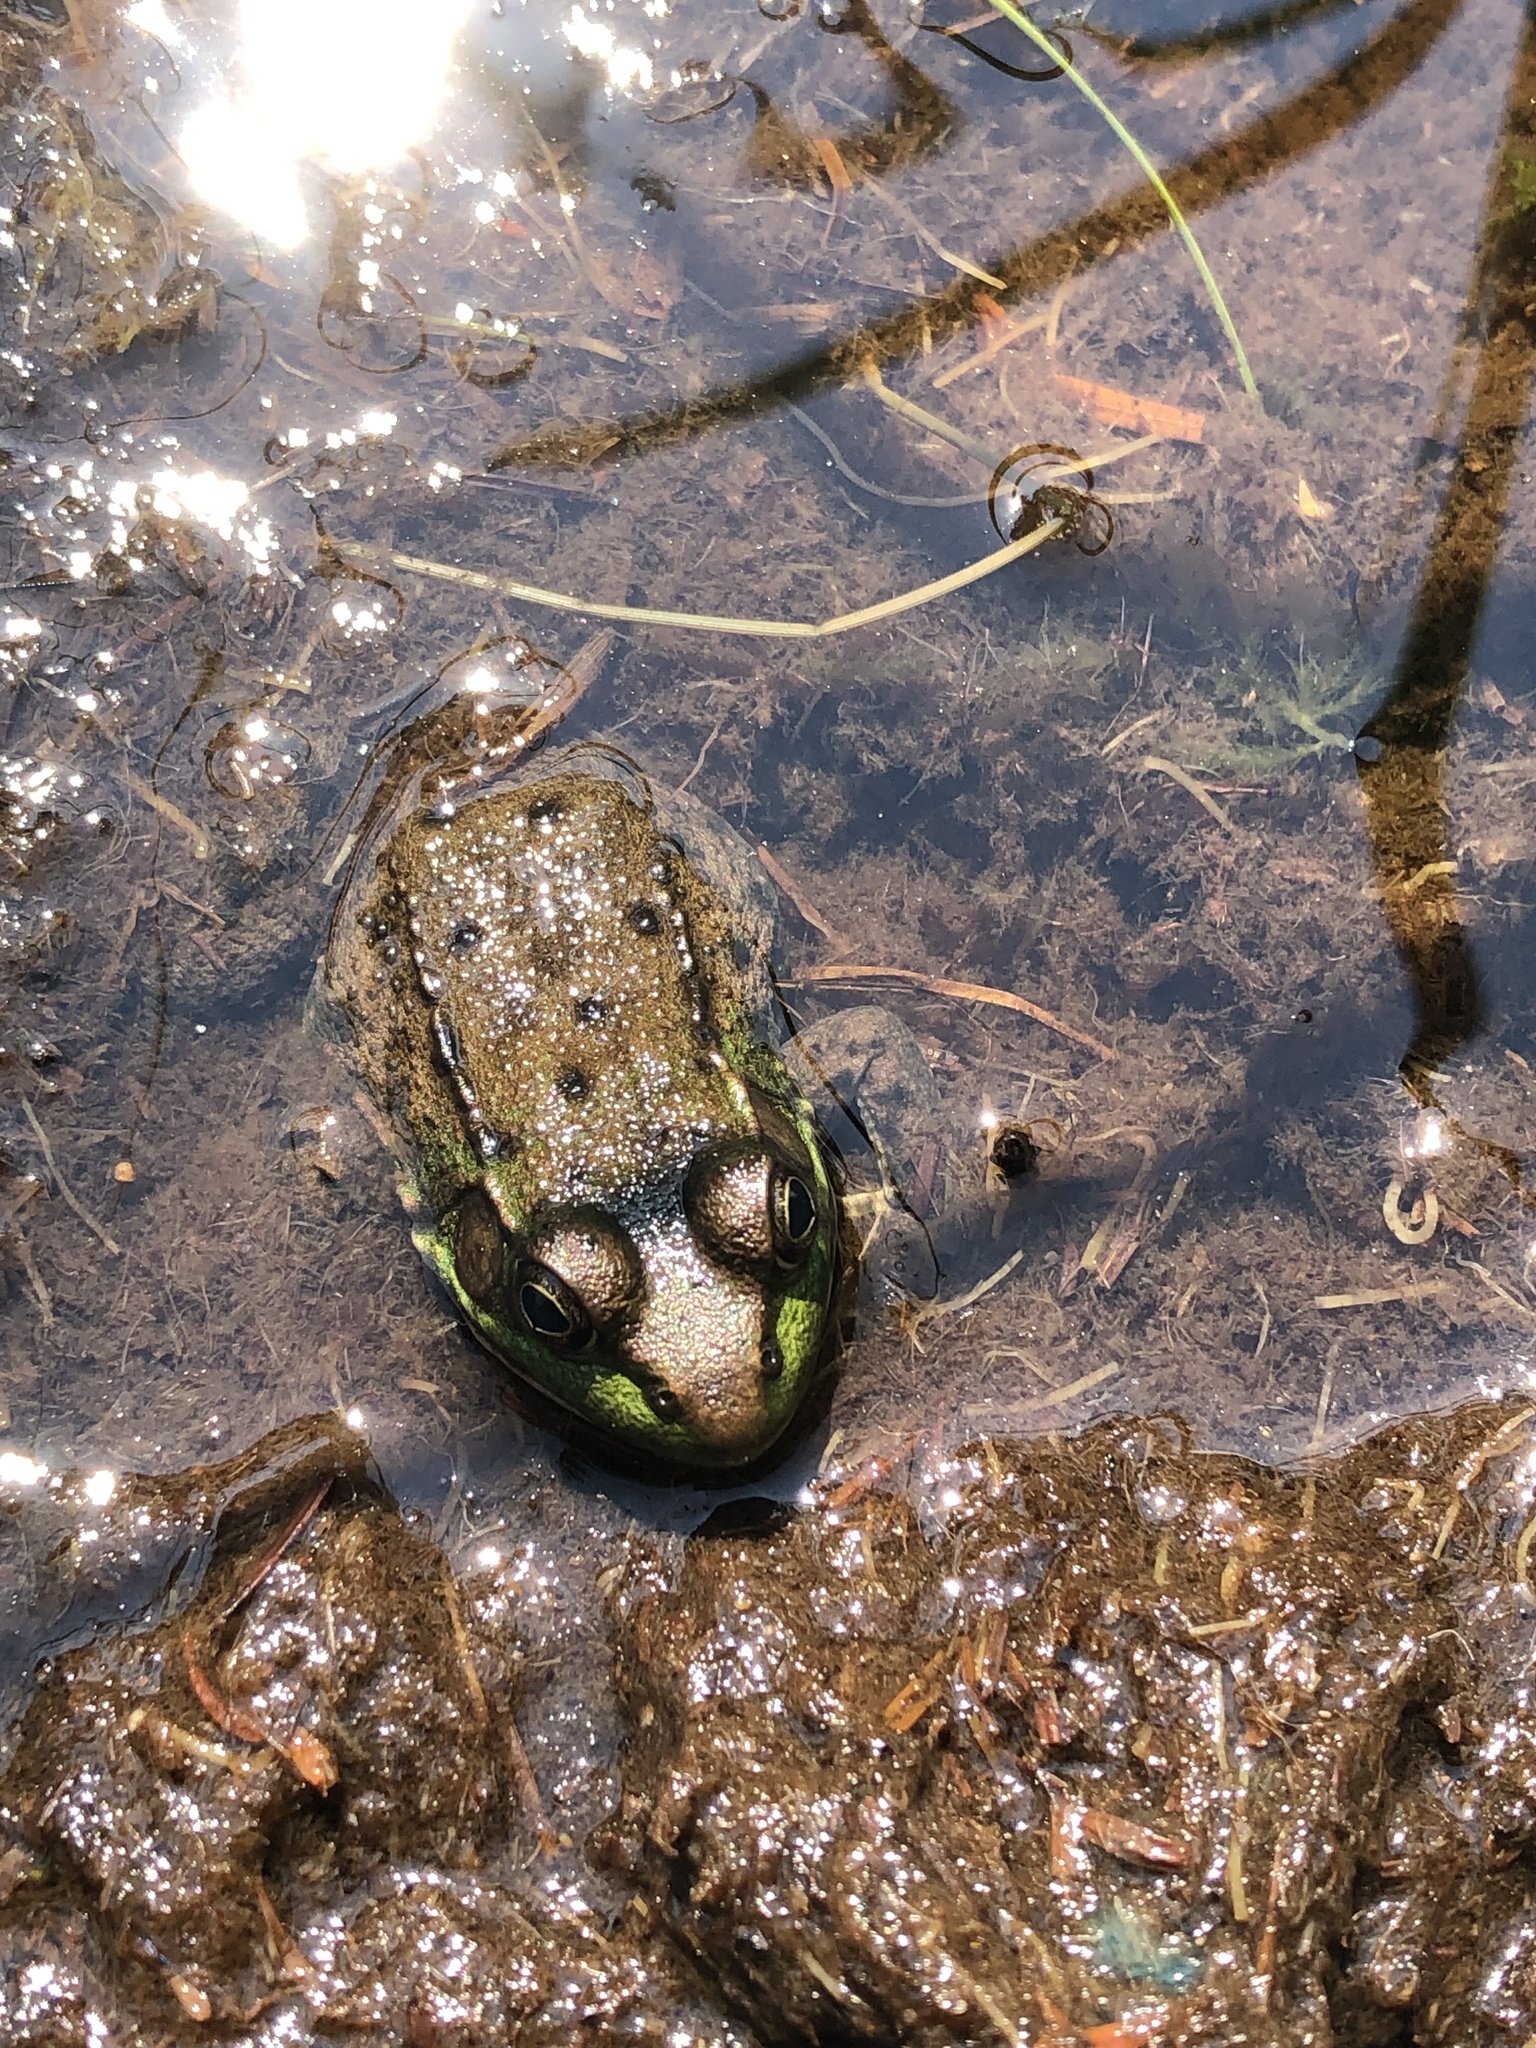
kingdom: Animalia
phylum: Chordata
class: Amphibia
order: Anura
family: Ranidae
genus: Lithobates
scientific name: Lithobates clamitans
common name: Green frog
